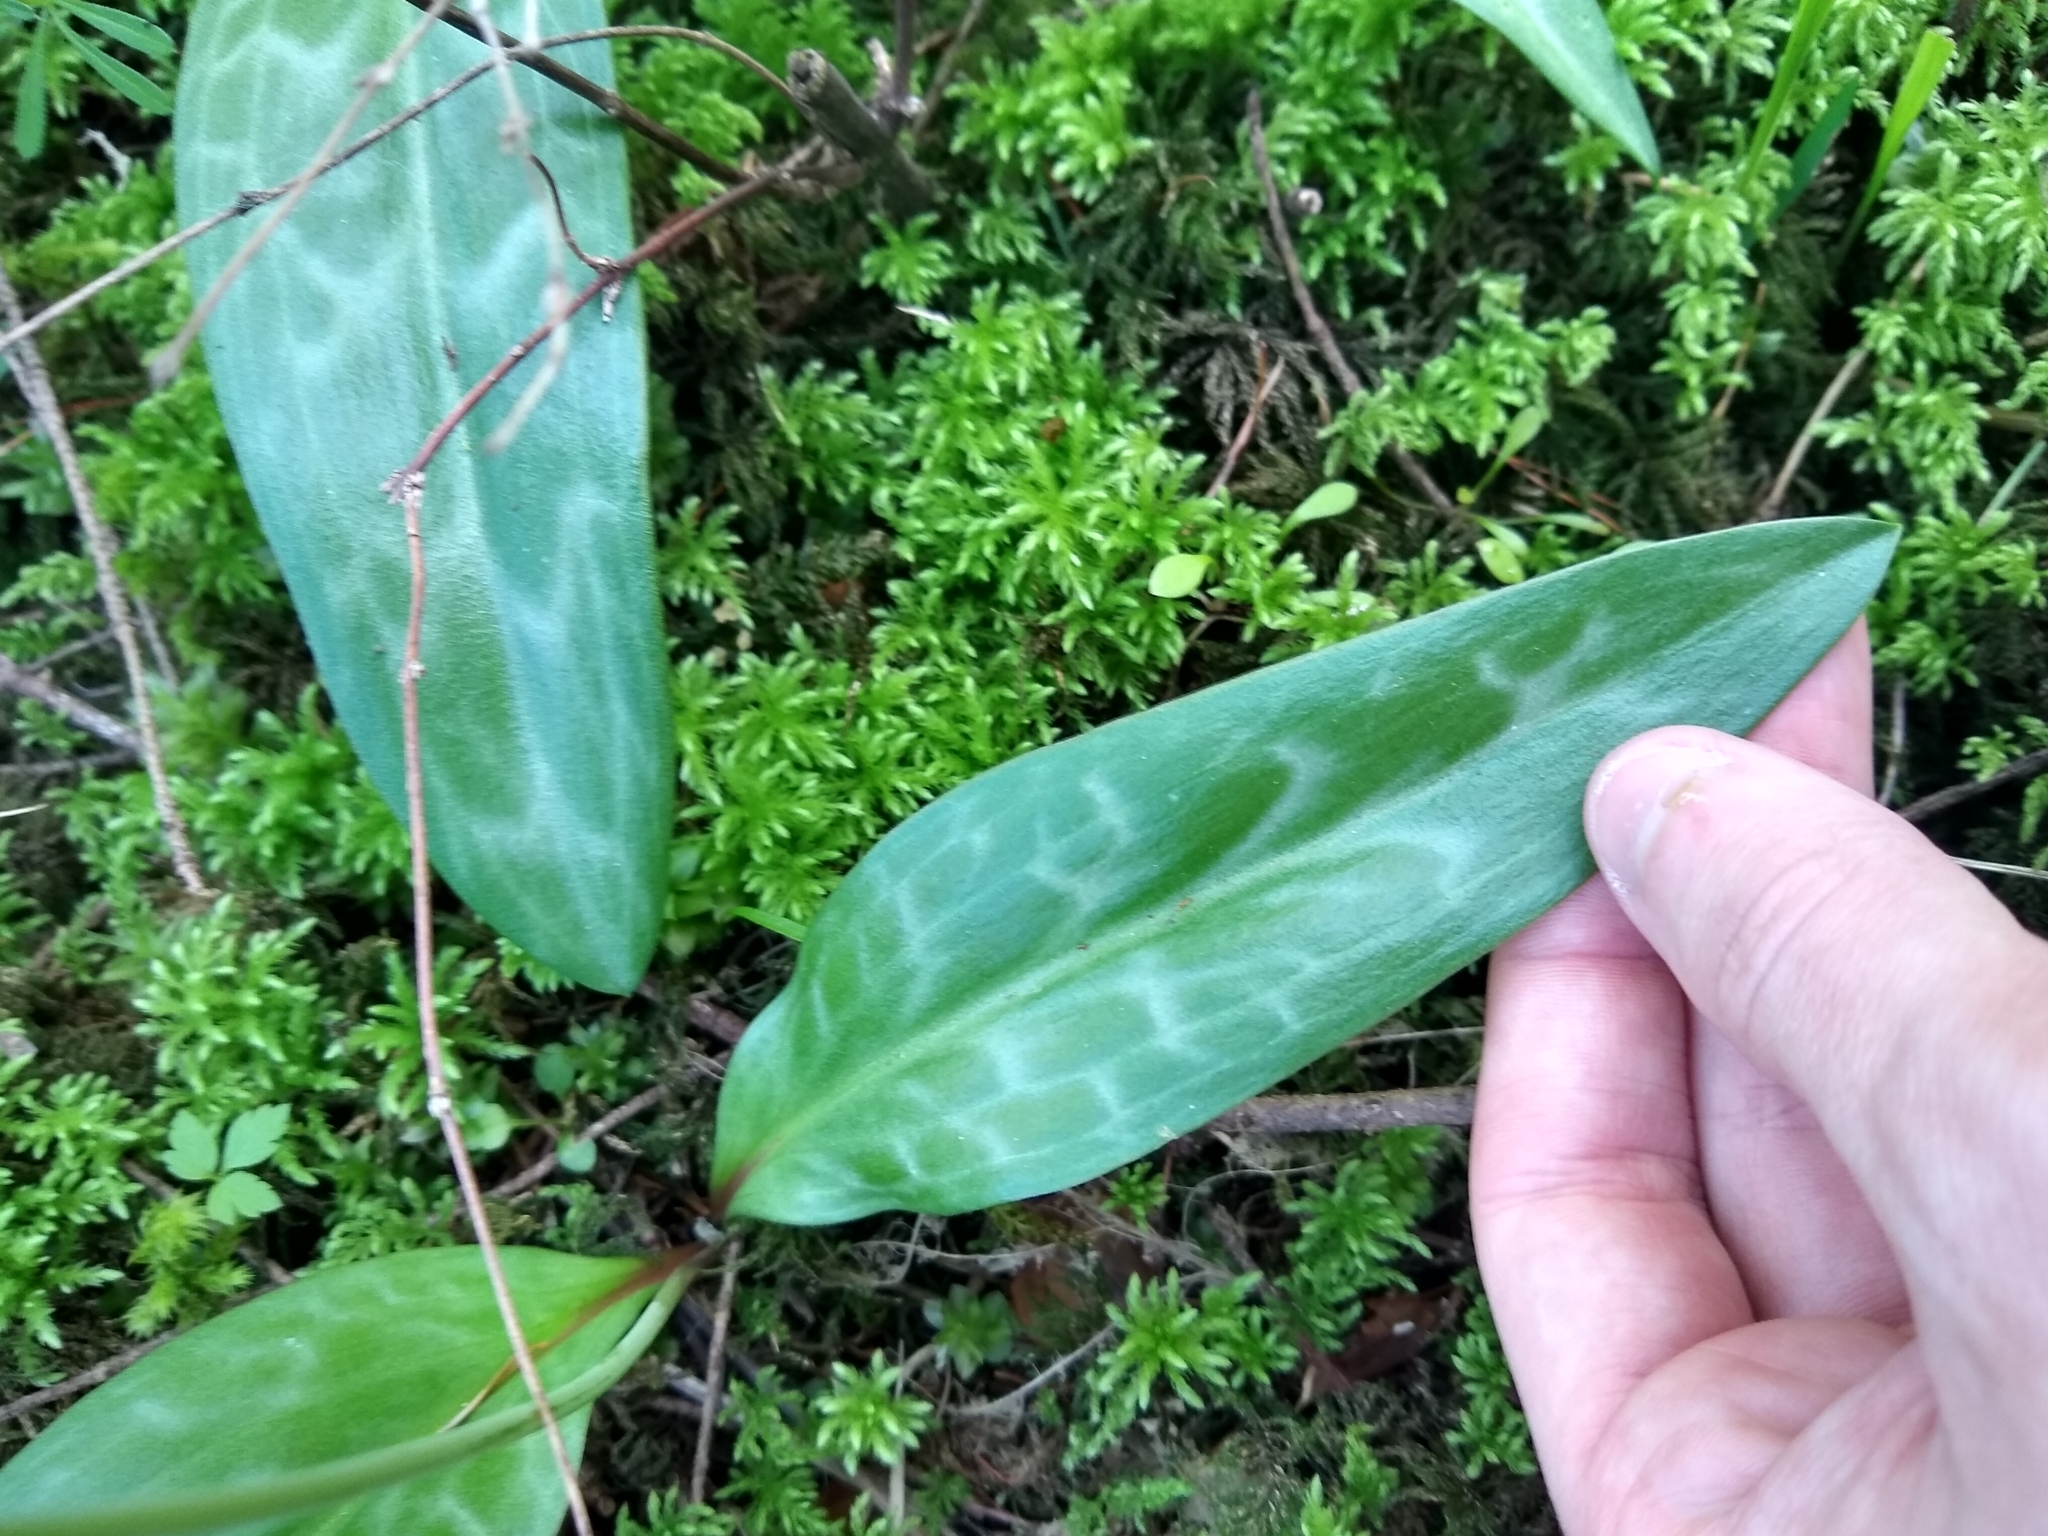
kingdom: Plantae
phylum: Tracheophyta
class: Liliopsida
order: Liliales
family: Liliaceae
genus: Erythronium
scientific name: Erythronium oregonum
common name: Giant adder's-tongue
